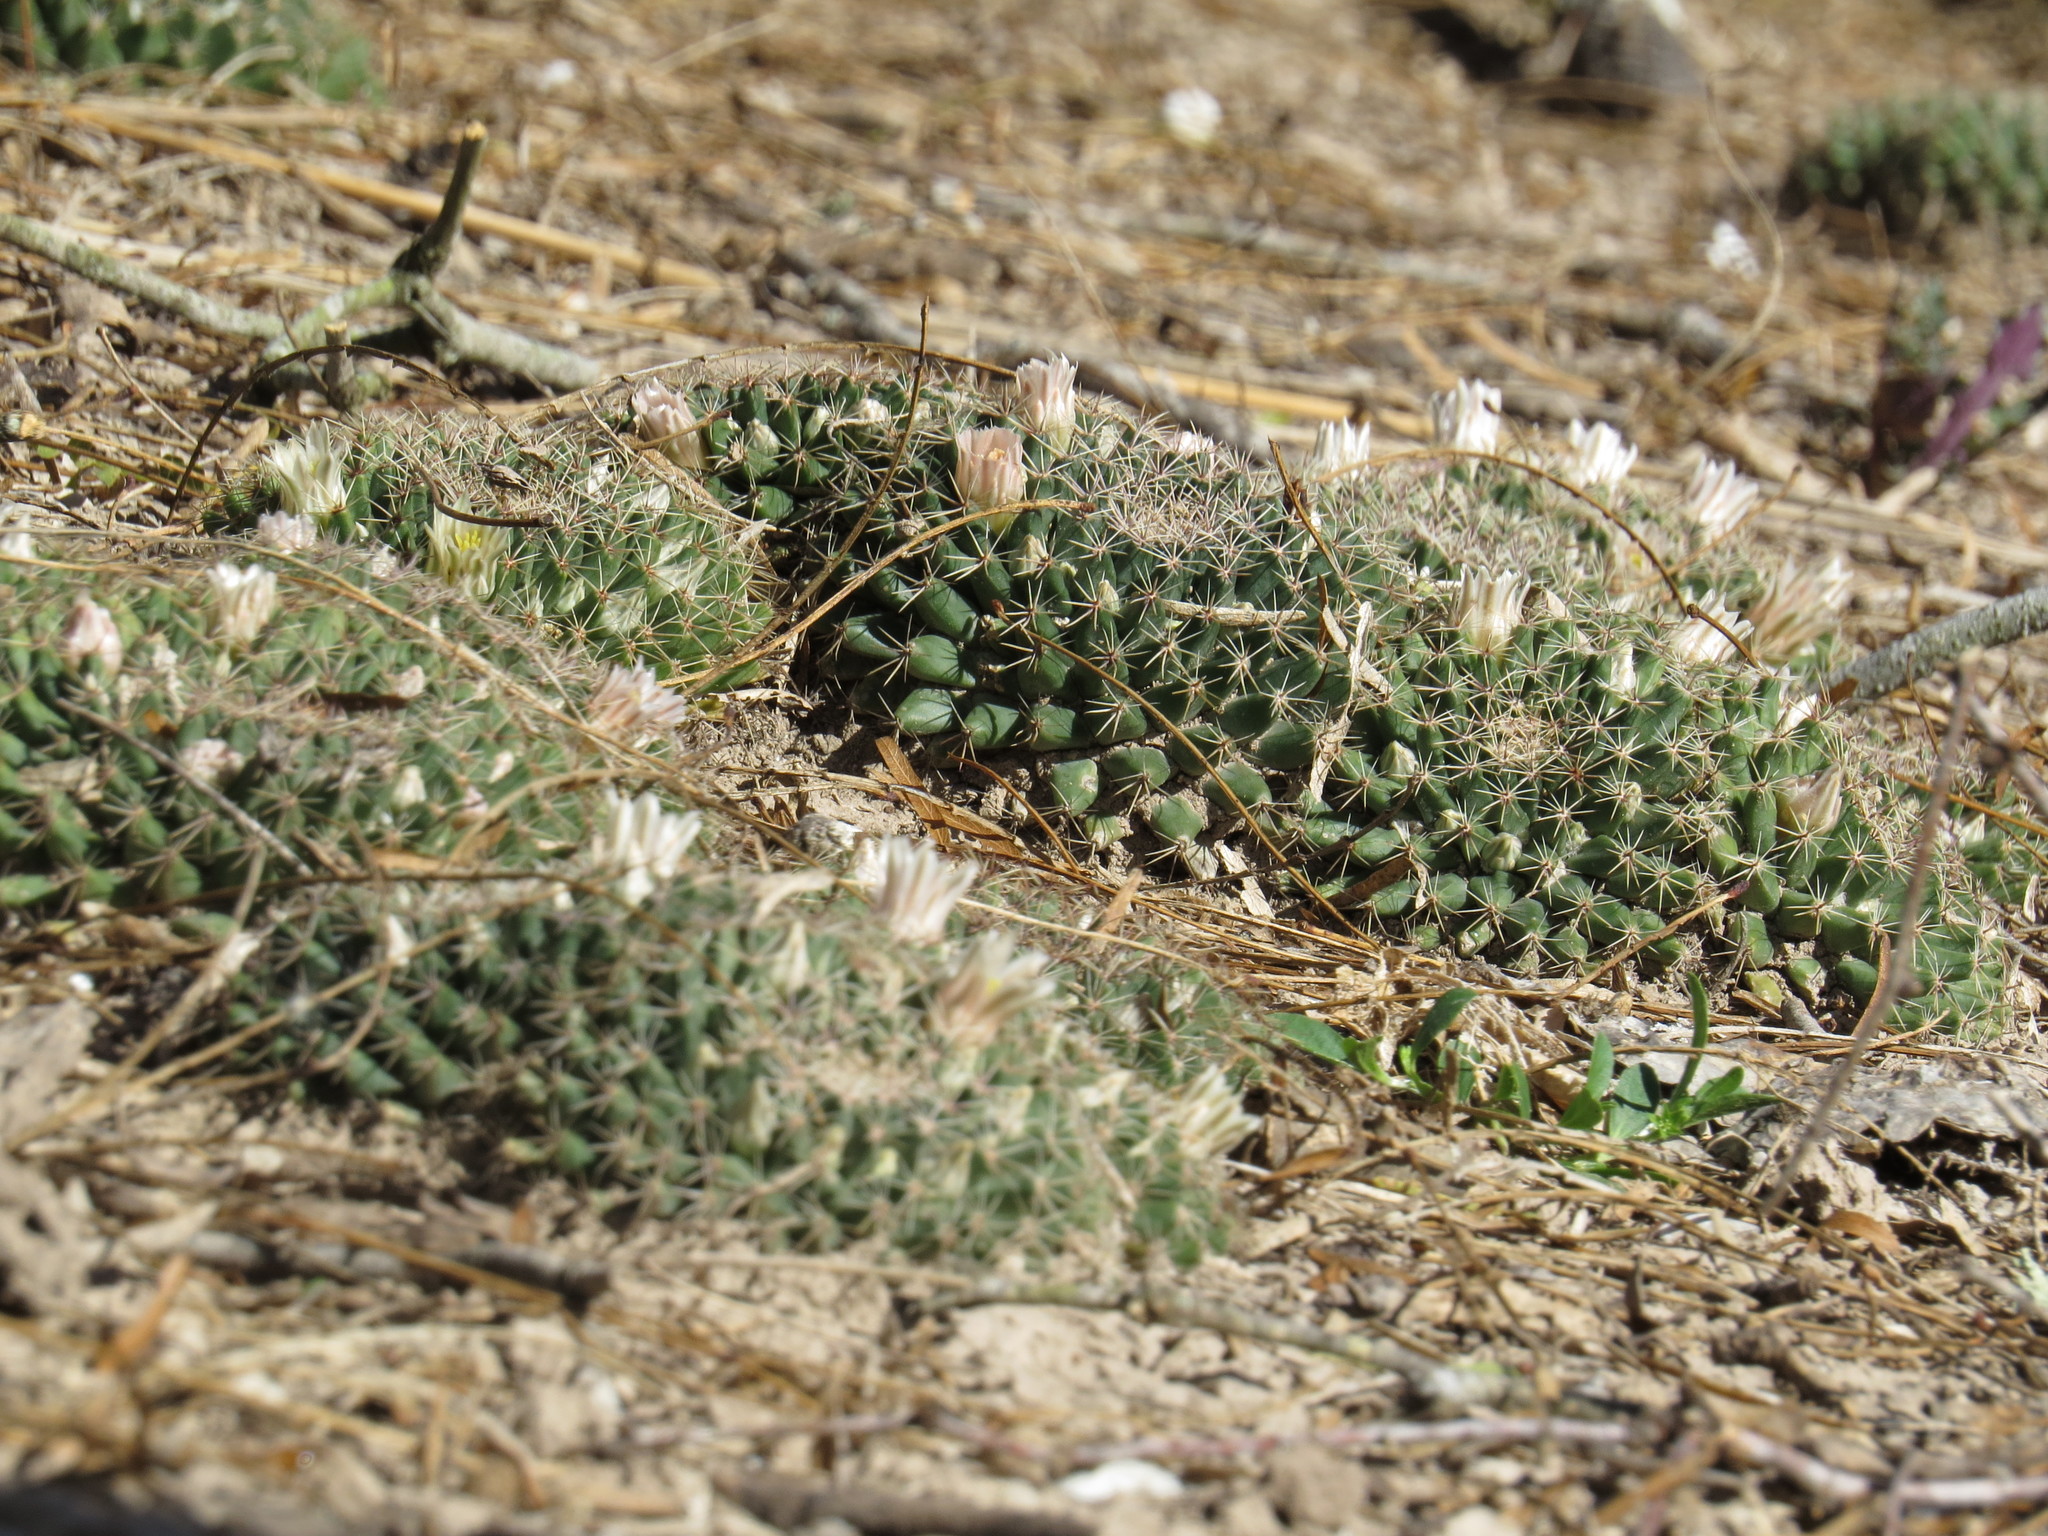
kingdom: Plantae
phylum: Tracheophyta
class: Magnoliopsida
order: Caryophyllales
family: Cactaceae
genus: Mammillaria
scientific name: Mammillaria heyderi
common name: Little nipple cactus
